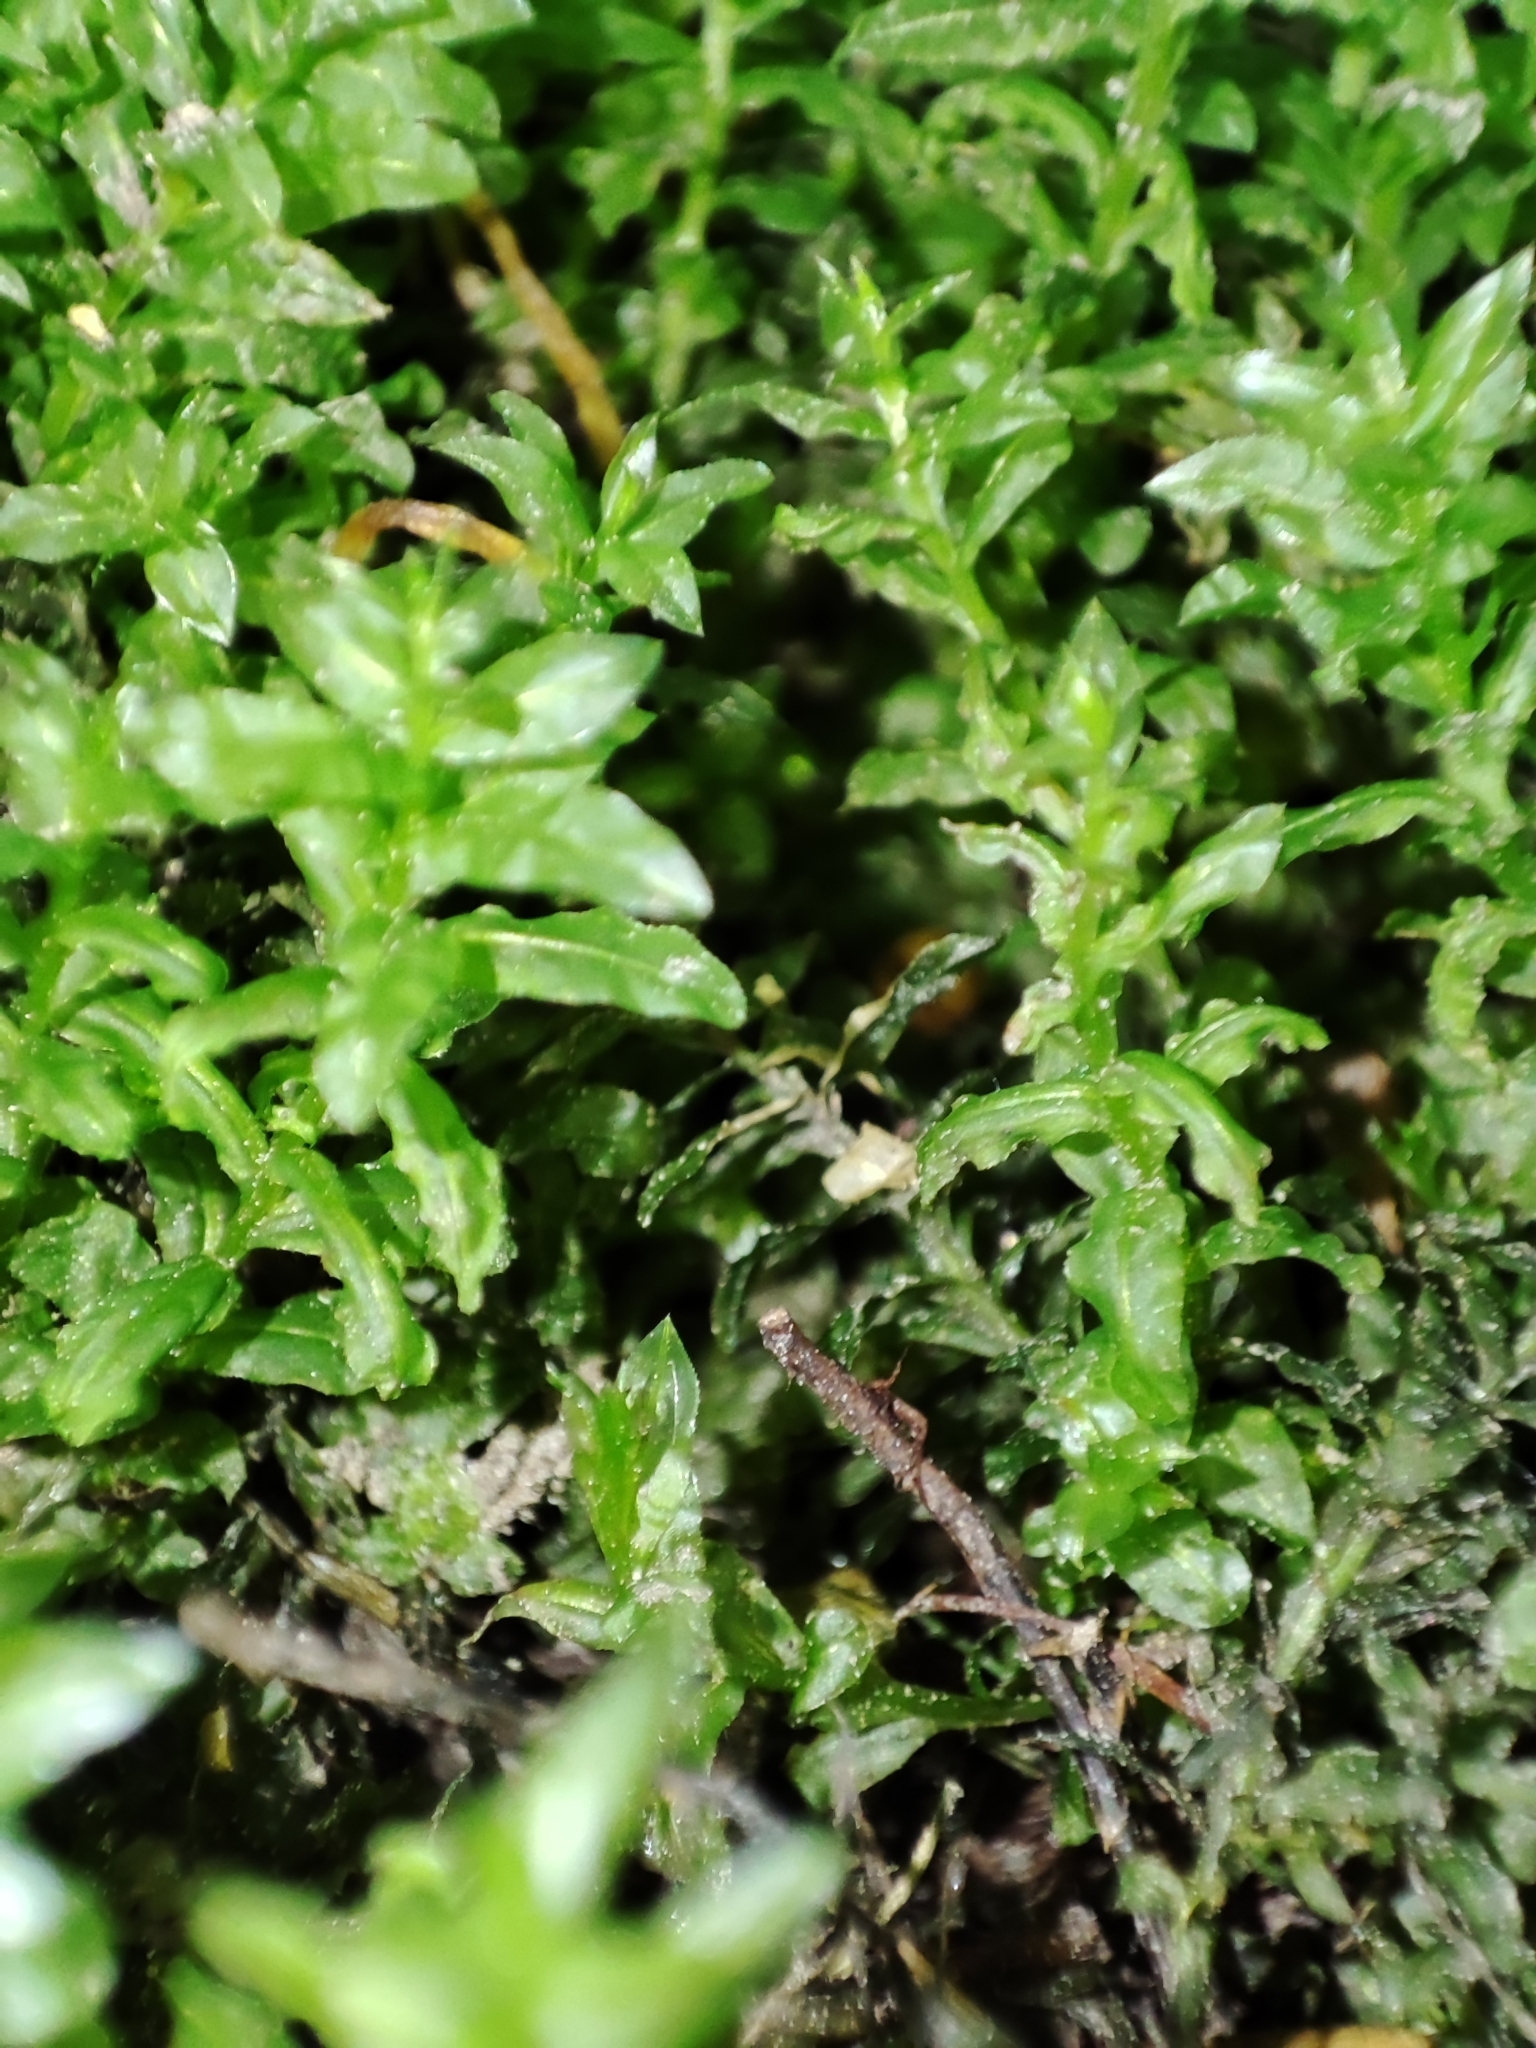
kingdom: Plantae
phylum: Bryophyta
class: Bryopsida
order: Bryales
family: Mniaceae
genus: Plagiomnium
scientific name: Plagiomnium undulatum
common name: Hart's-tongue thyme-moss
